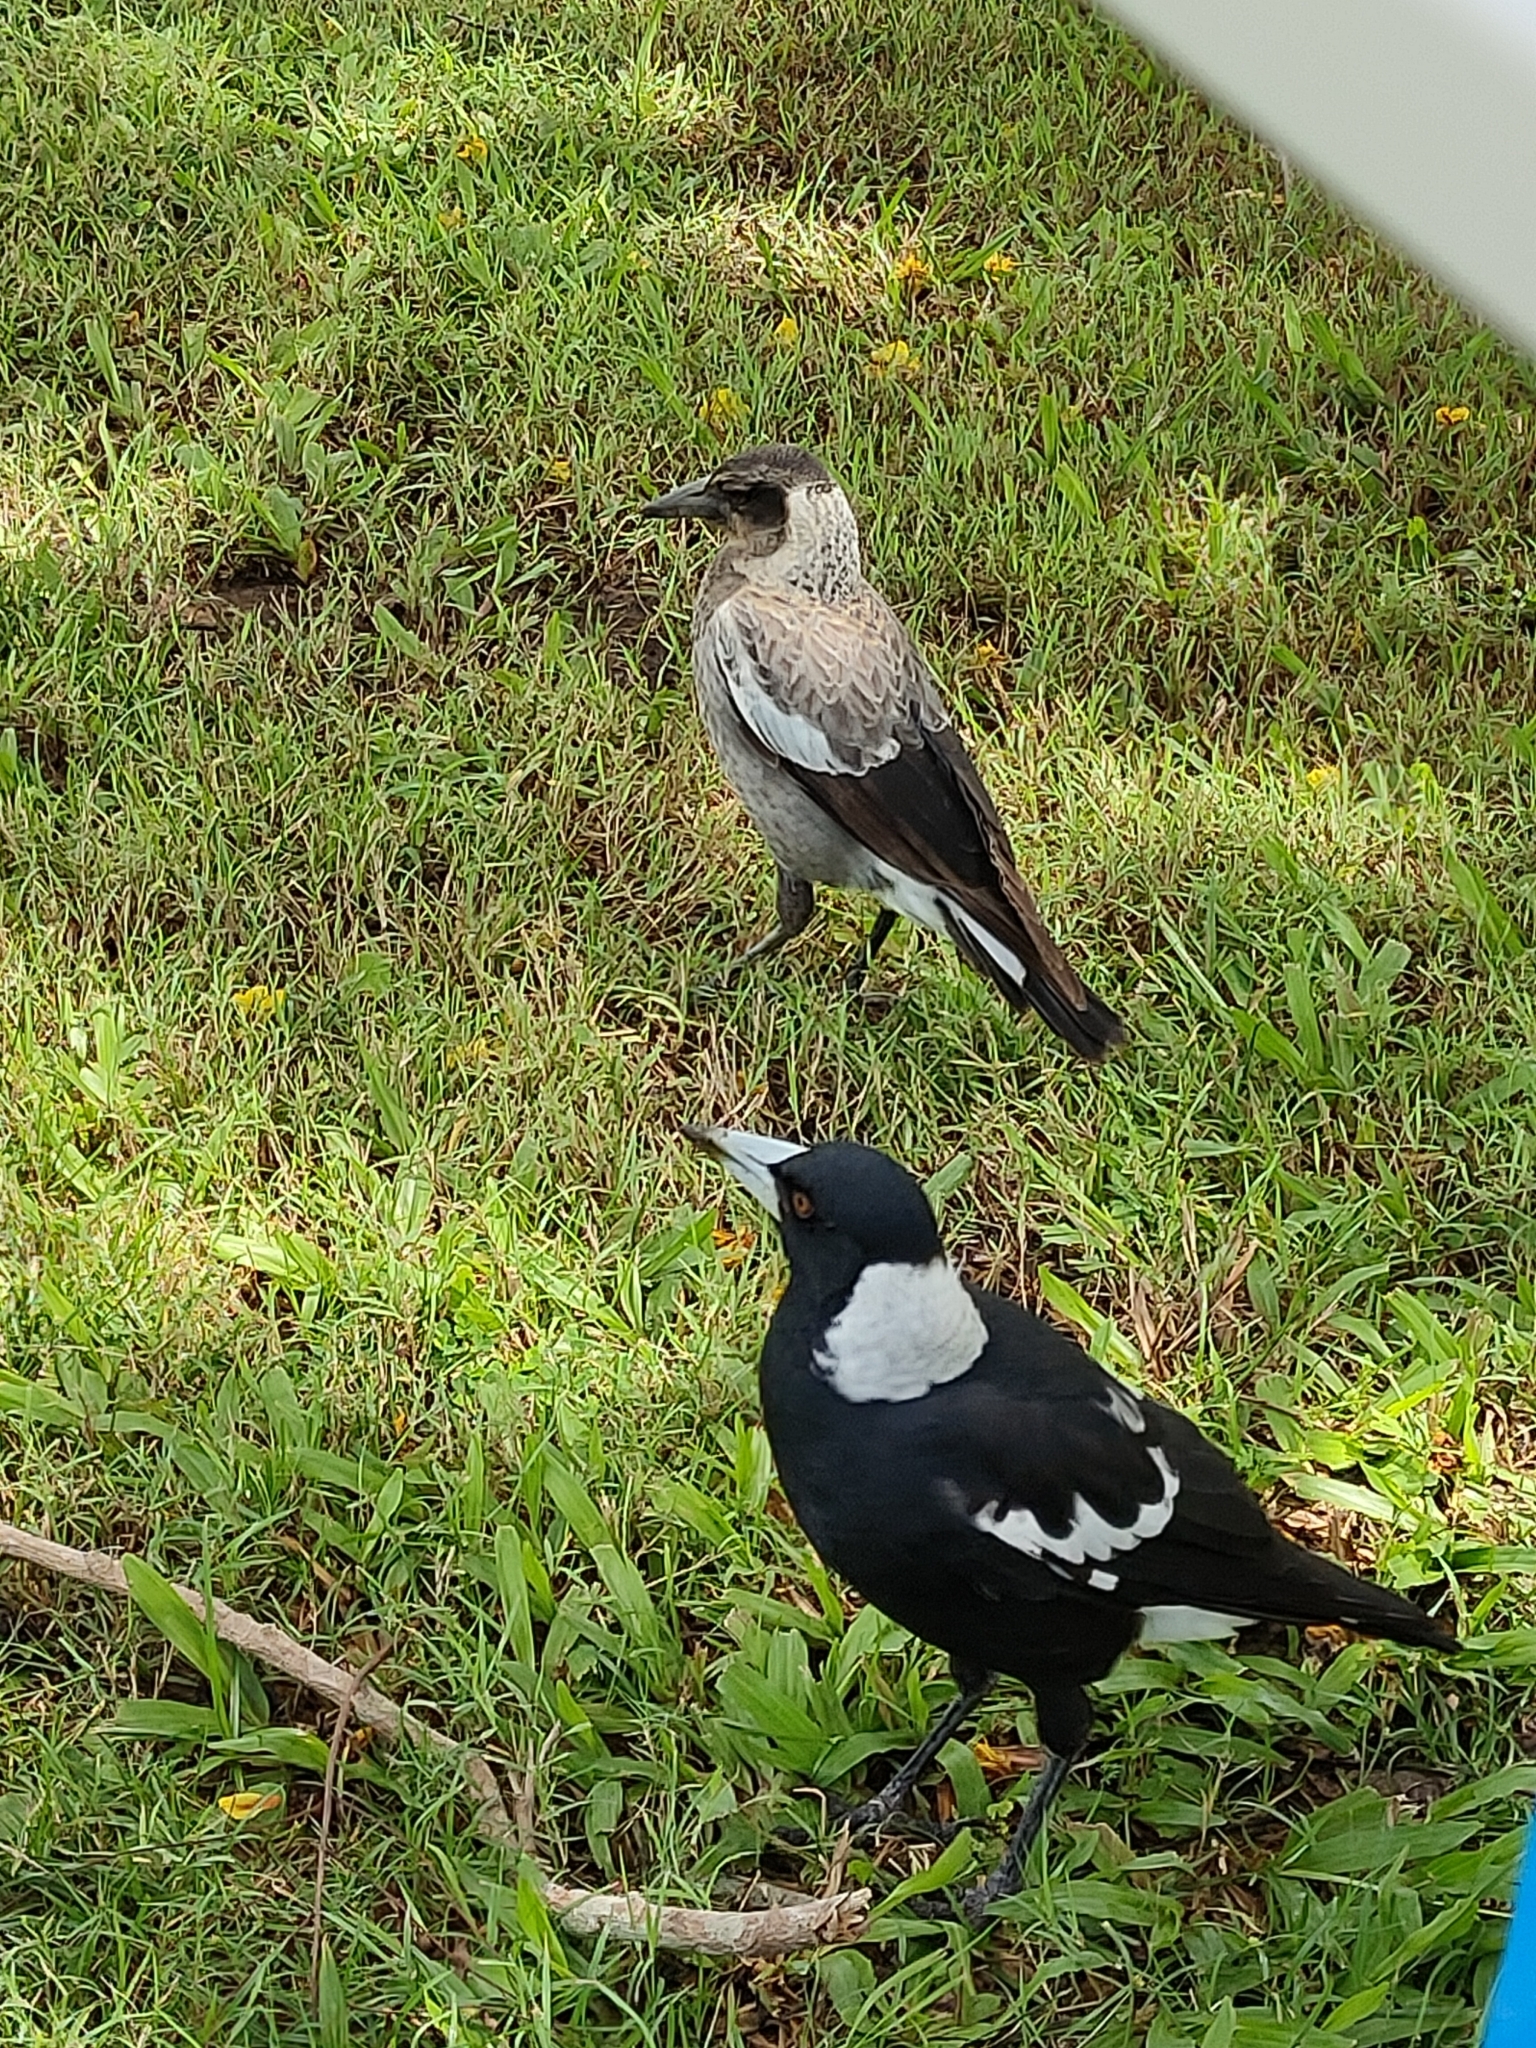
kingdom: Animalia
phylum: Chordata
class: Aves
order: Passeriformes
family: Cracticidae
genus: Gymnorhina
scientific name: Gymnorhina tibicen
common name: Australian magpie
